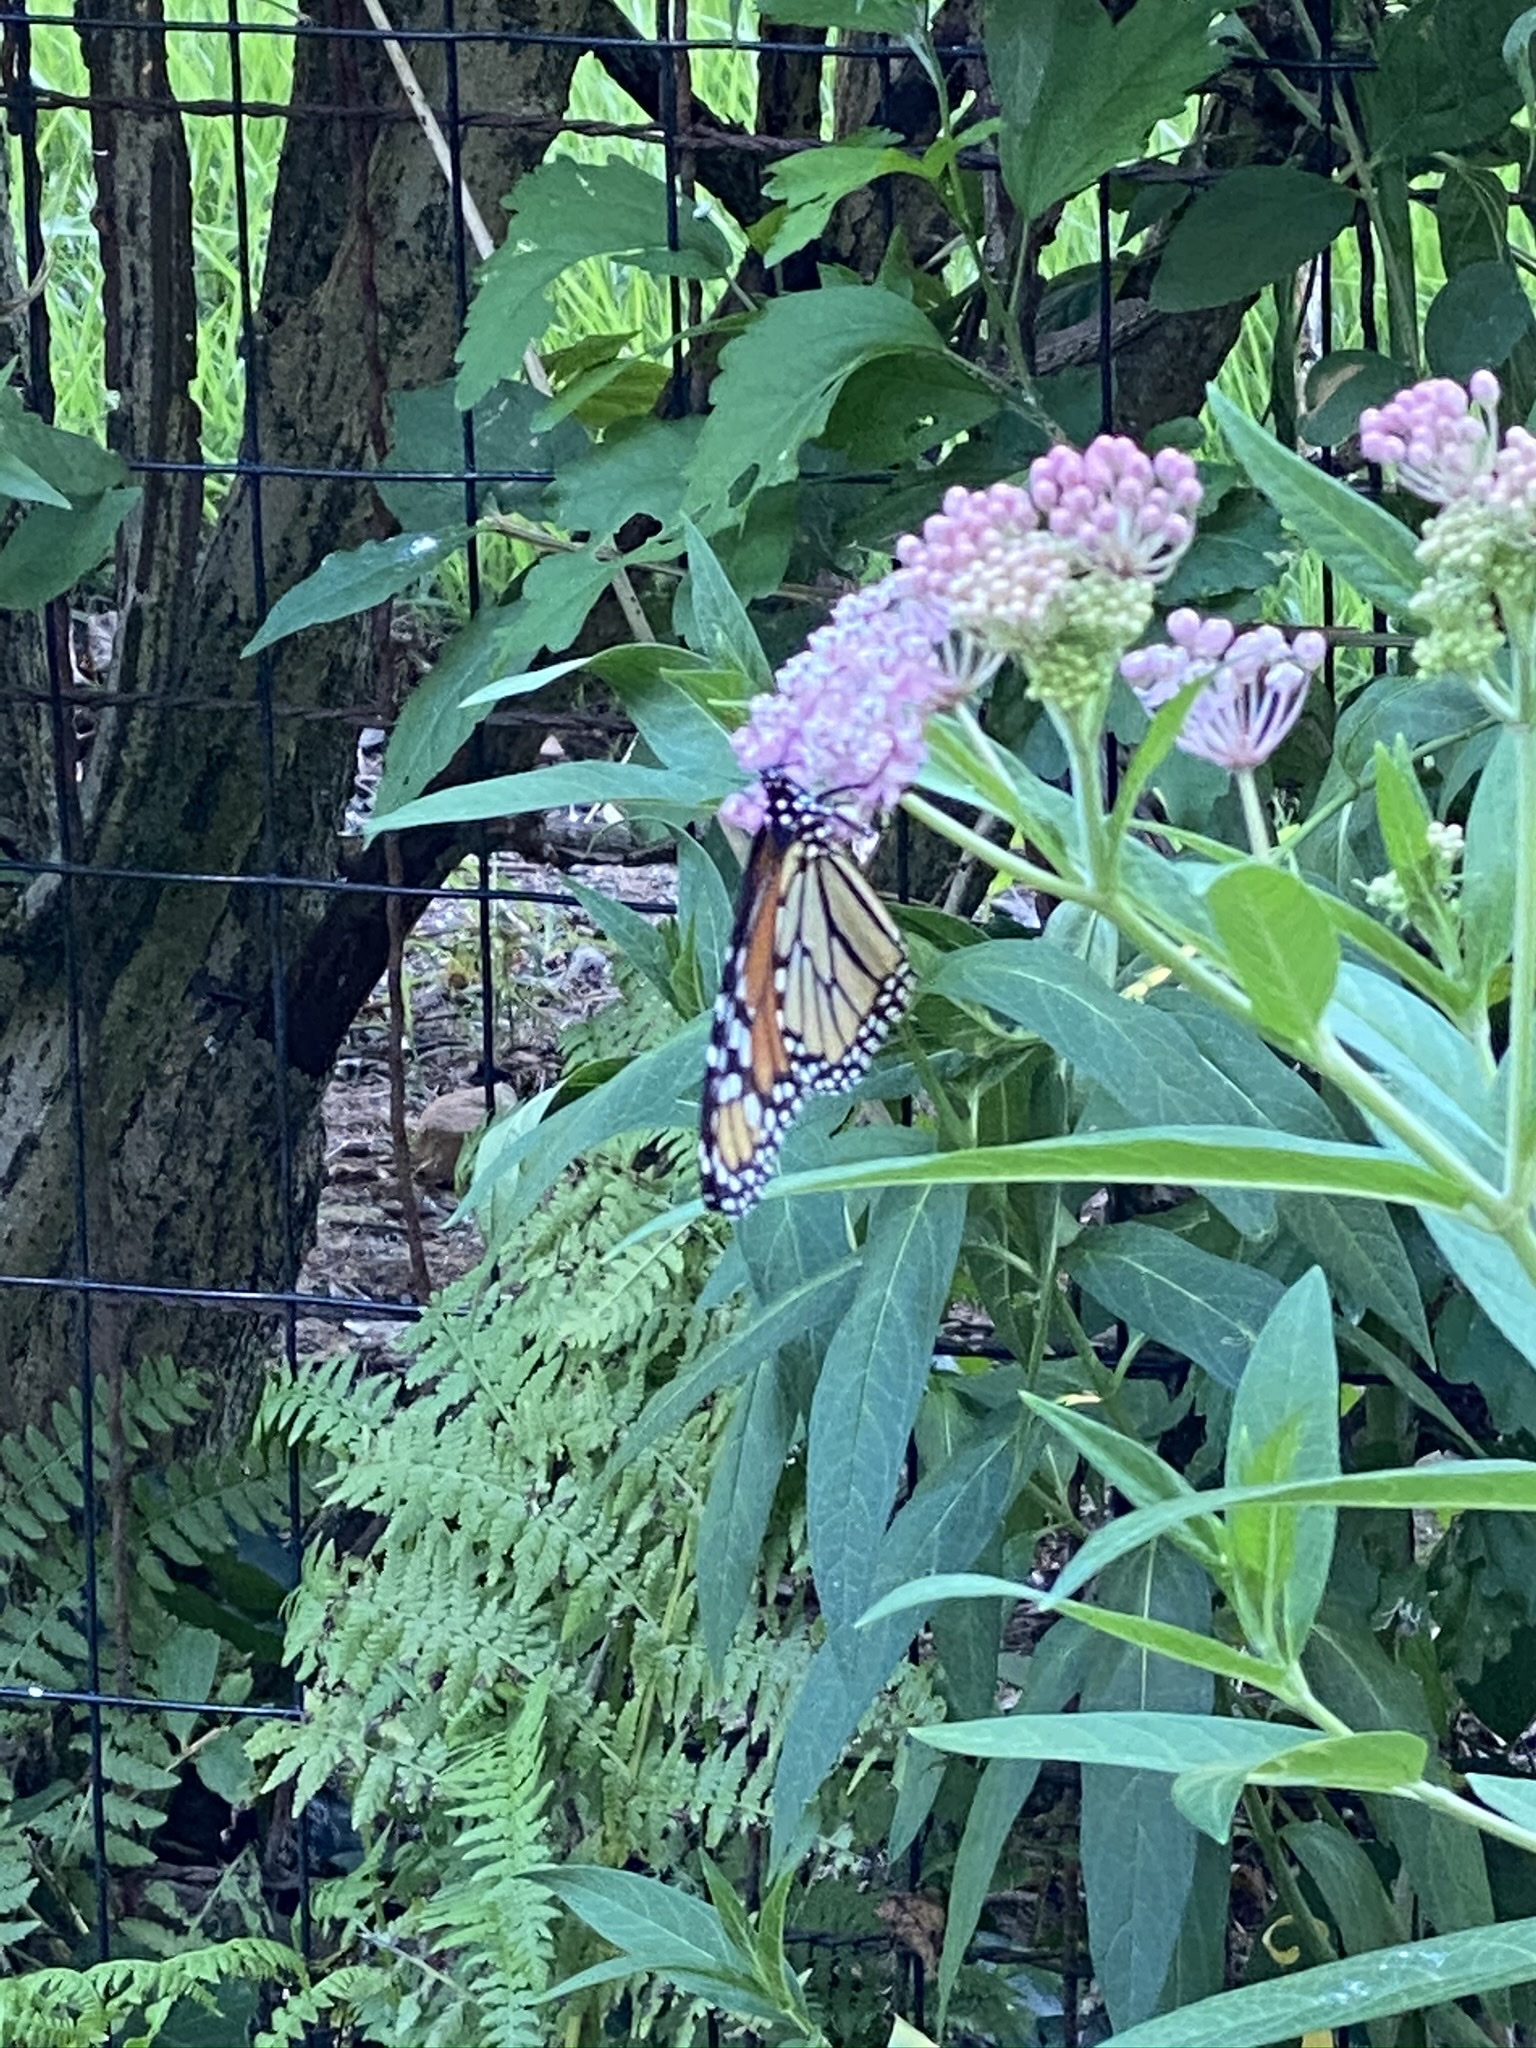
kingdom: Animalia
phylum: Arthropoda
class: Insecta
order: Lepidoptera
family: Nymphalidae
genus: Danaus
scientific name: Danaus plexippus
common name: Monarch
